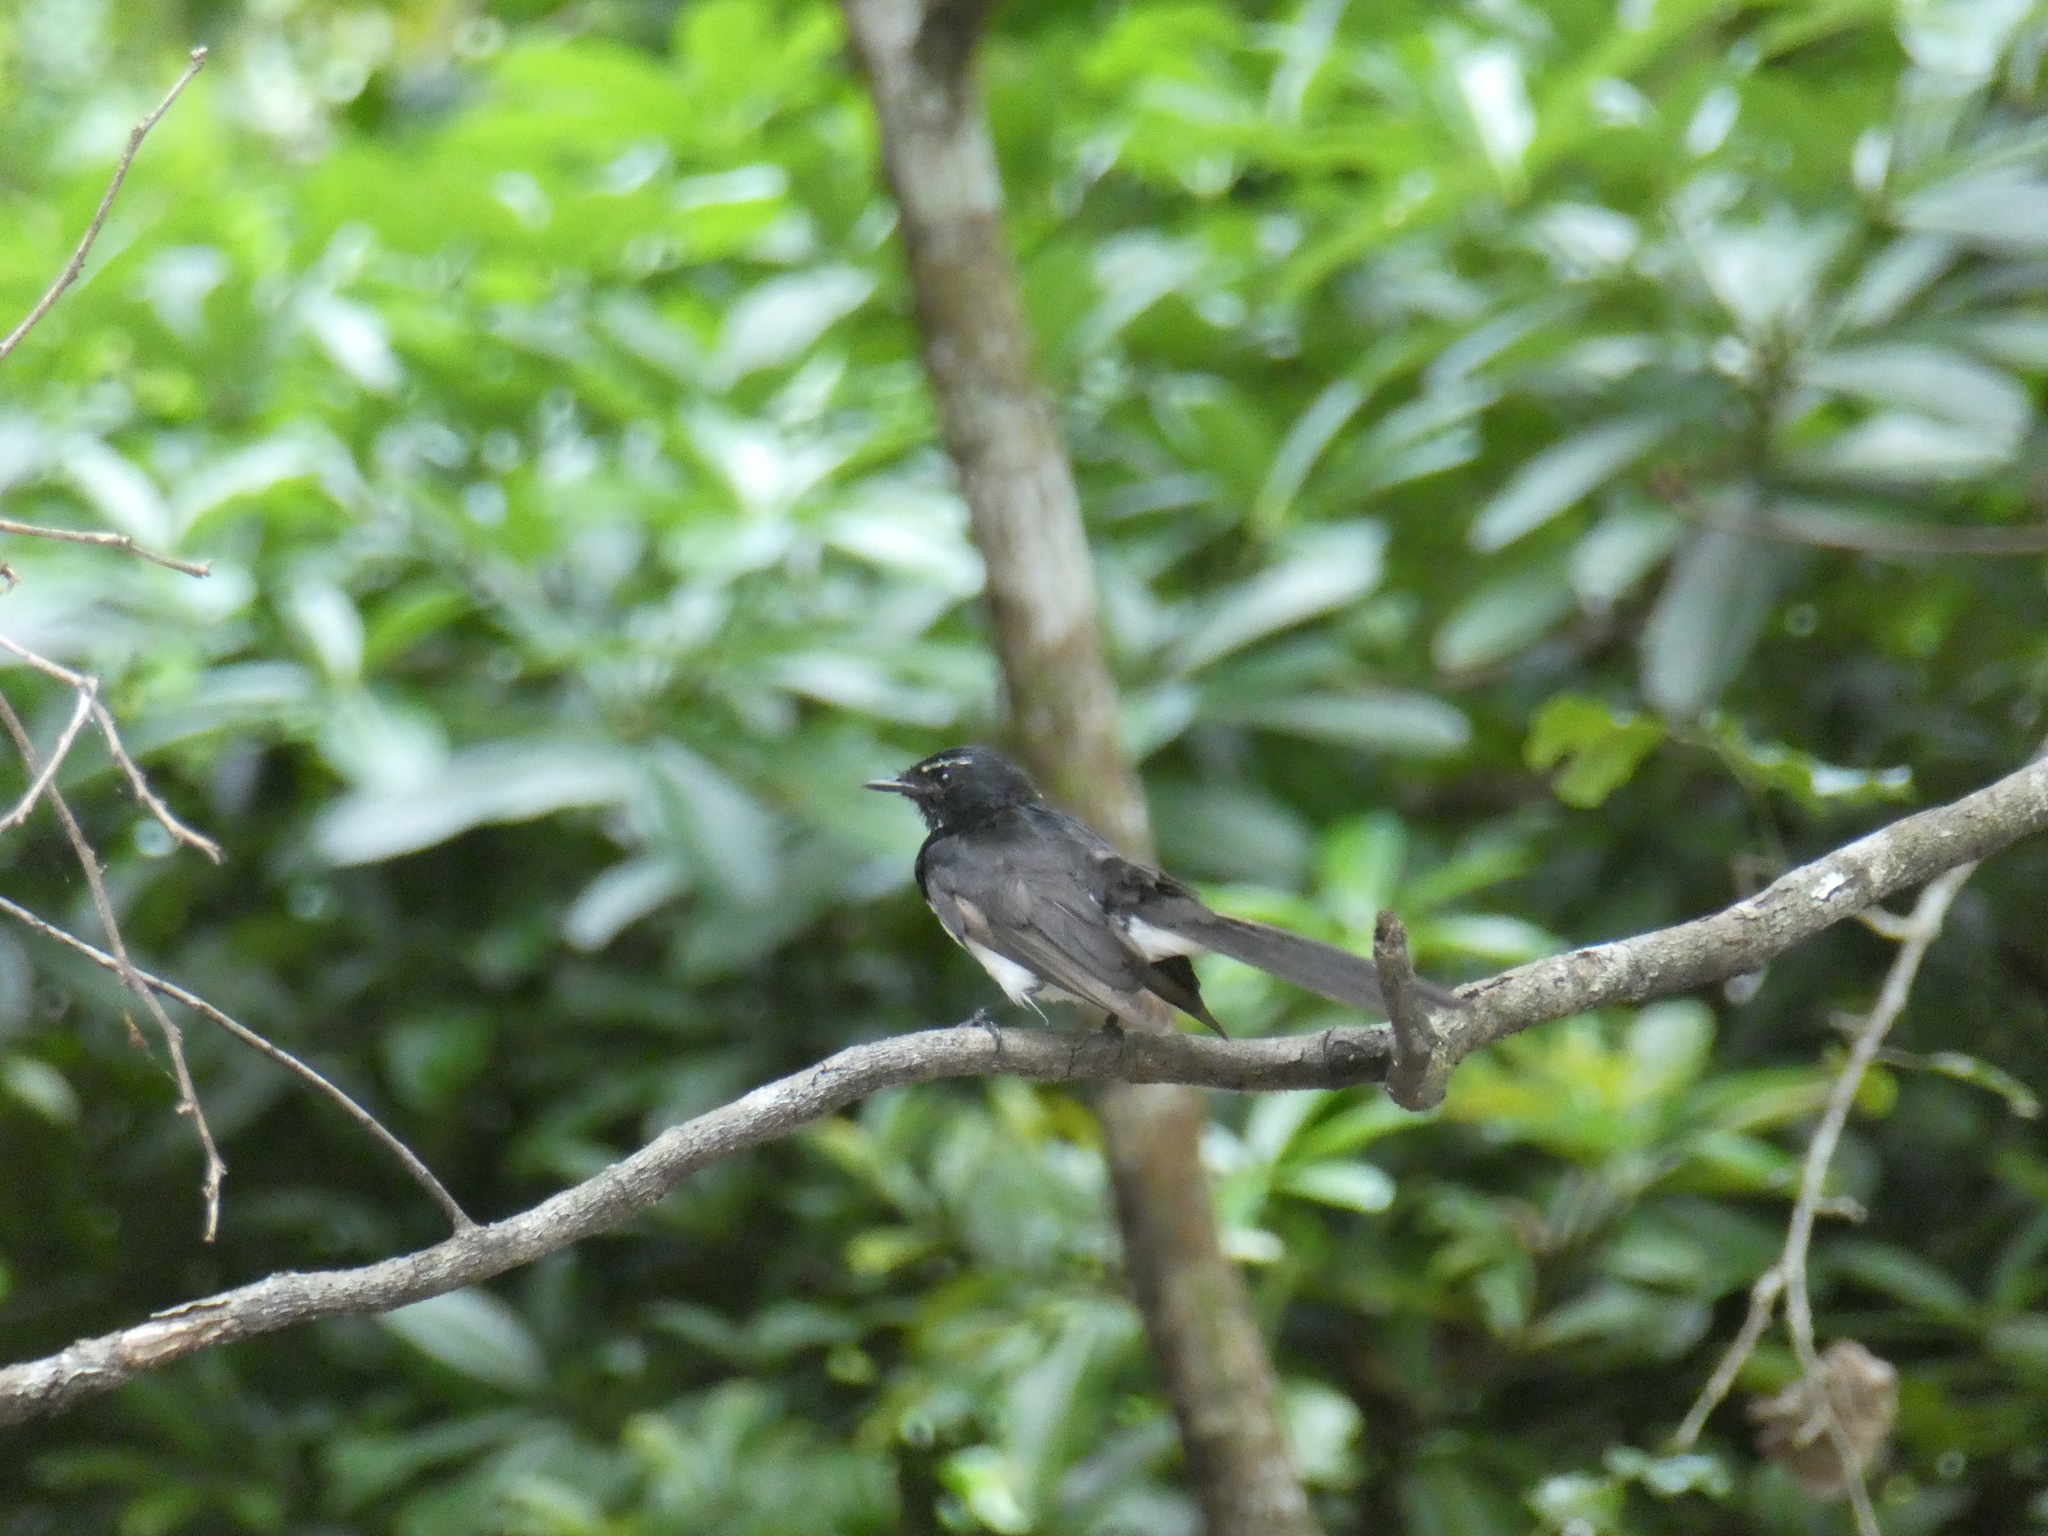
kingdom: Animalia
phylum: Chordata
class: Aves
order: Passeriformes
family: Rhipiduridae
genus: Rhipidura
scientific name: Rhipidura leucophrys
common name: Willie wagtail
